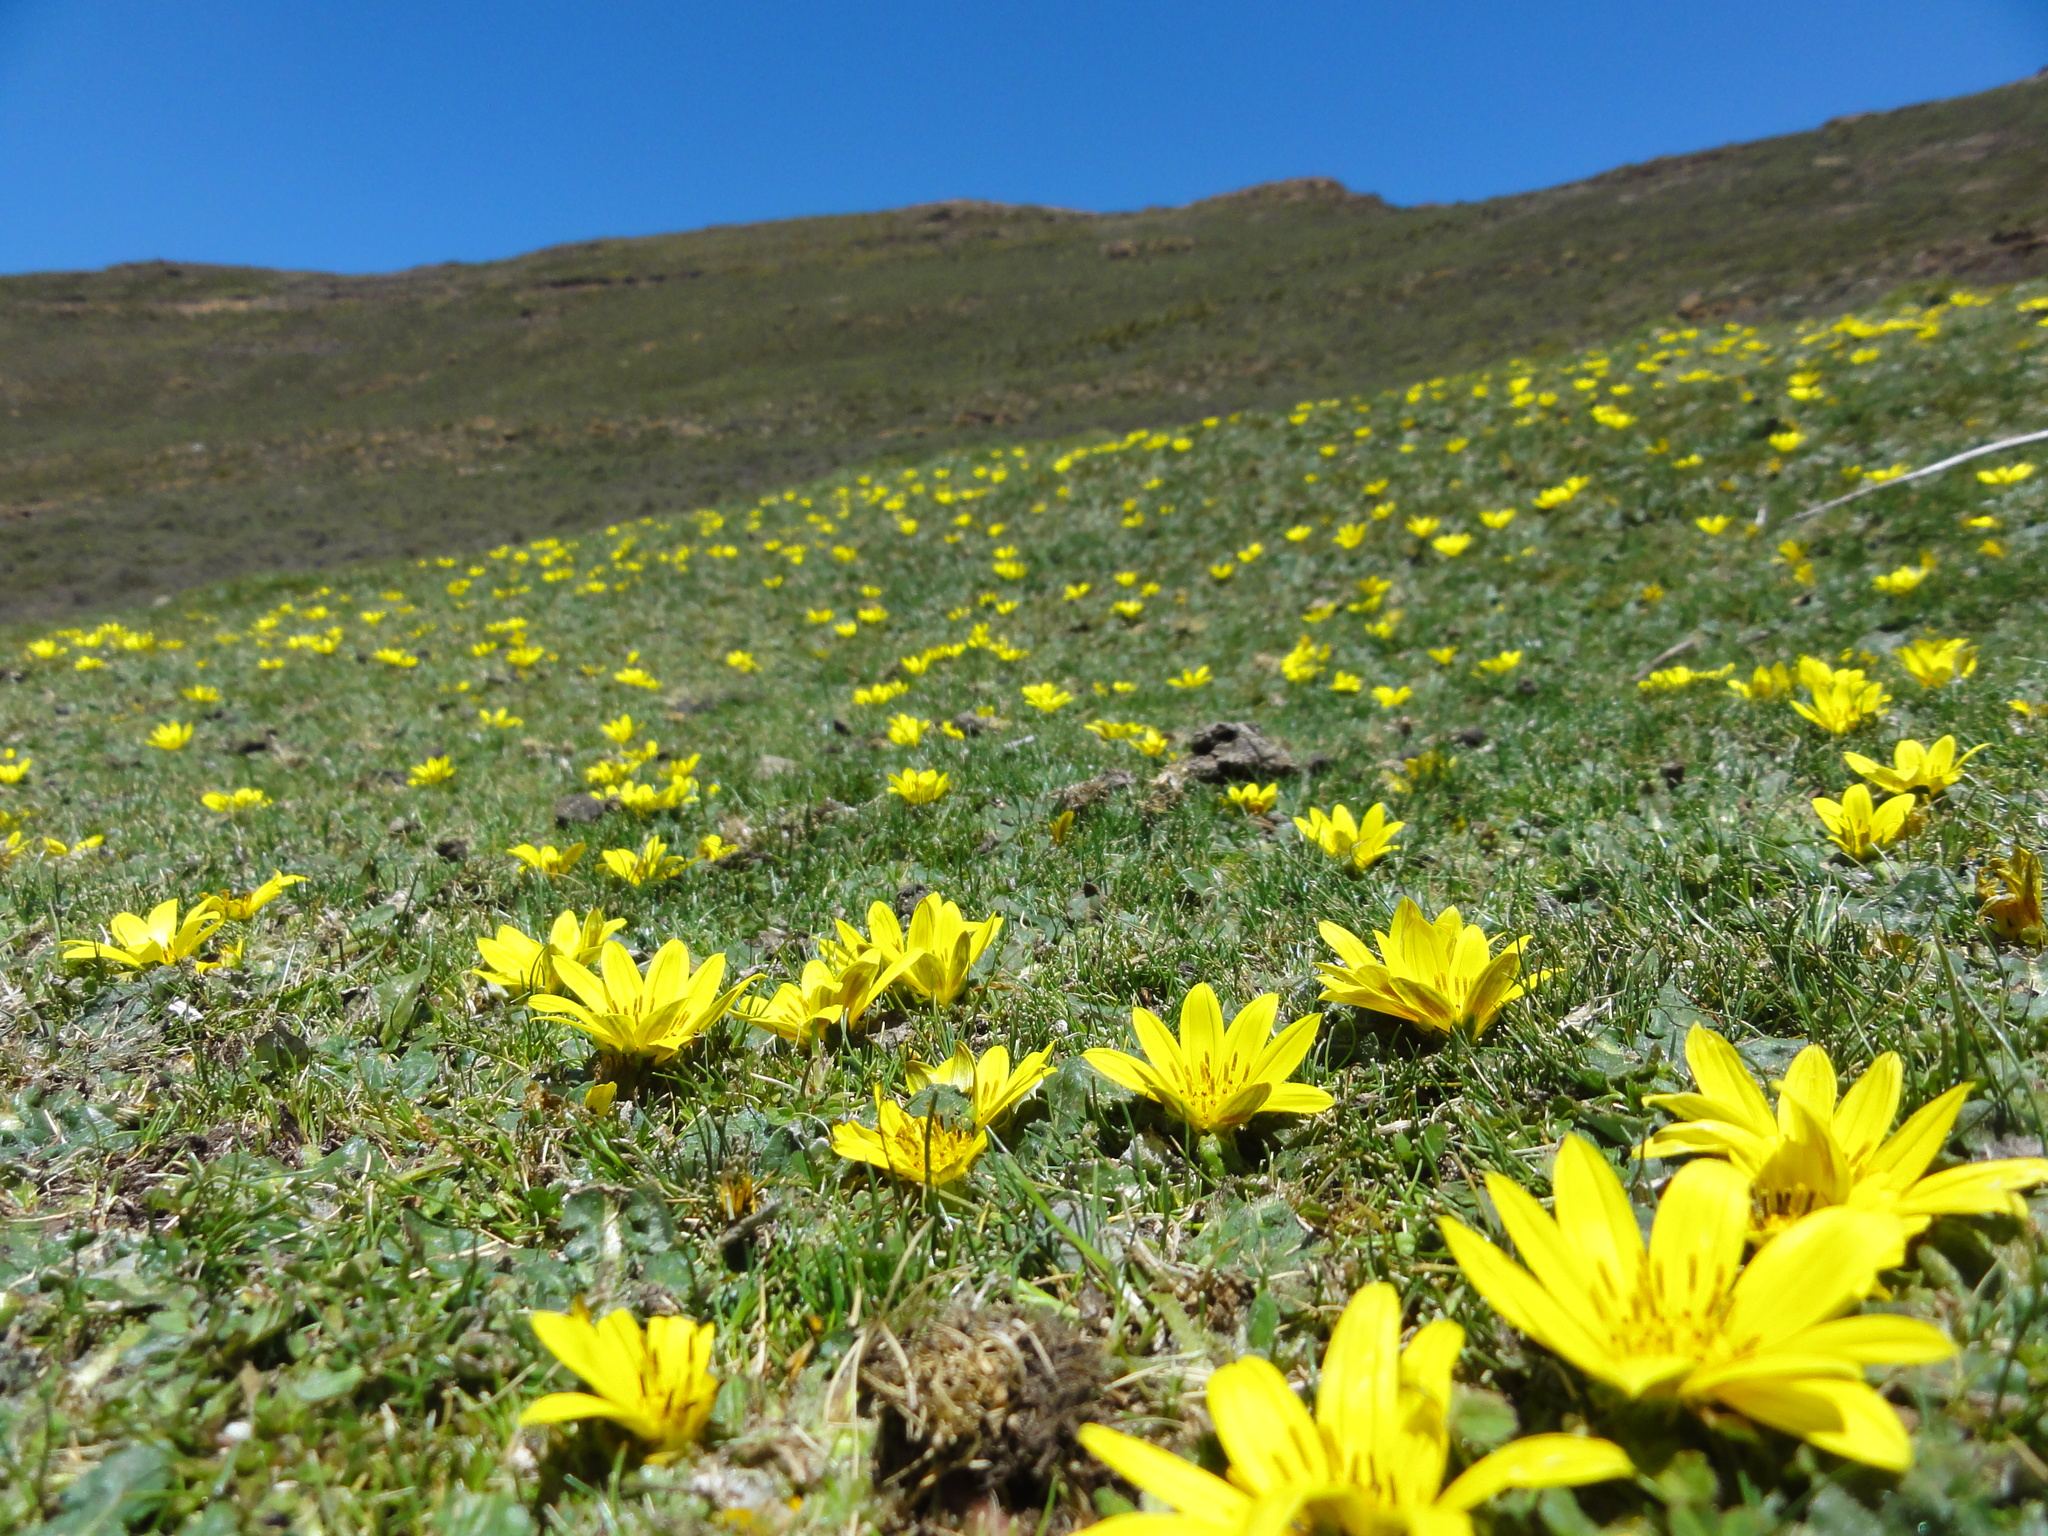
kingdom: Plantae
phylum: Tracheophyta
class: Magnoliopsida
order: Asterales
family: Asteraceae
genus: Haplocarpha
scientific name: Haplocarpha nervosa
